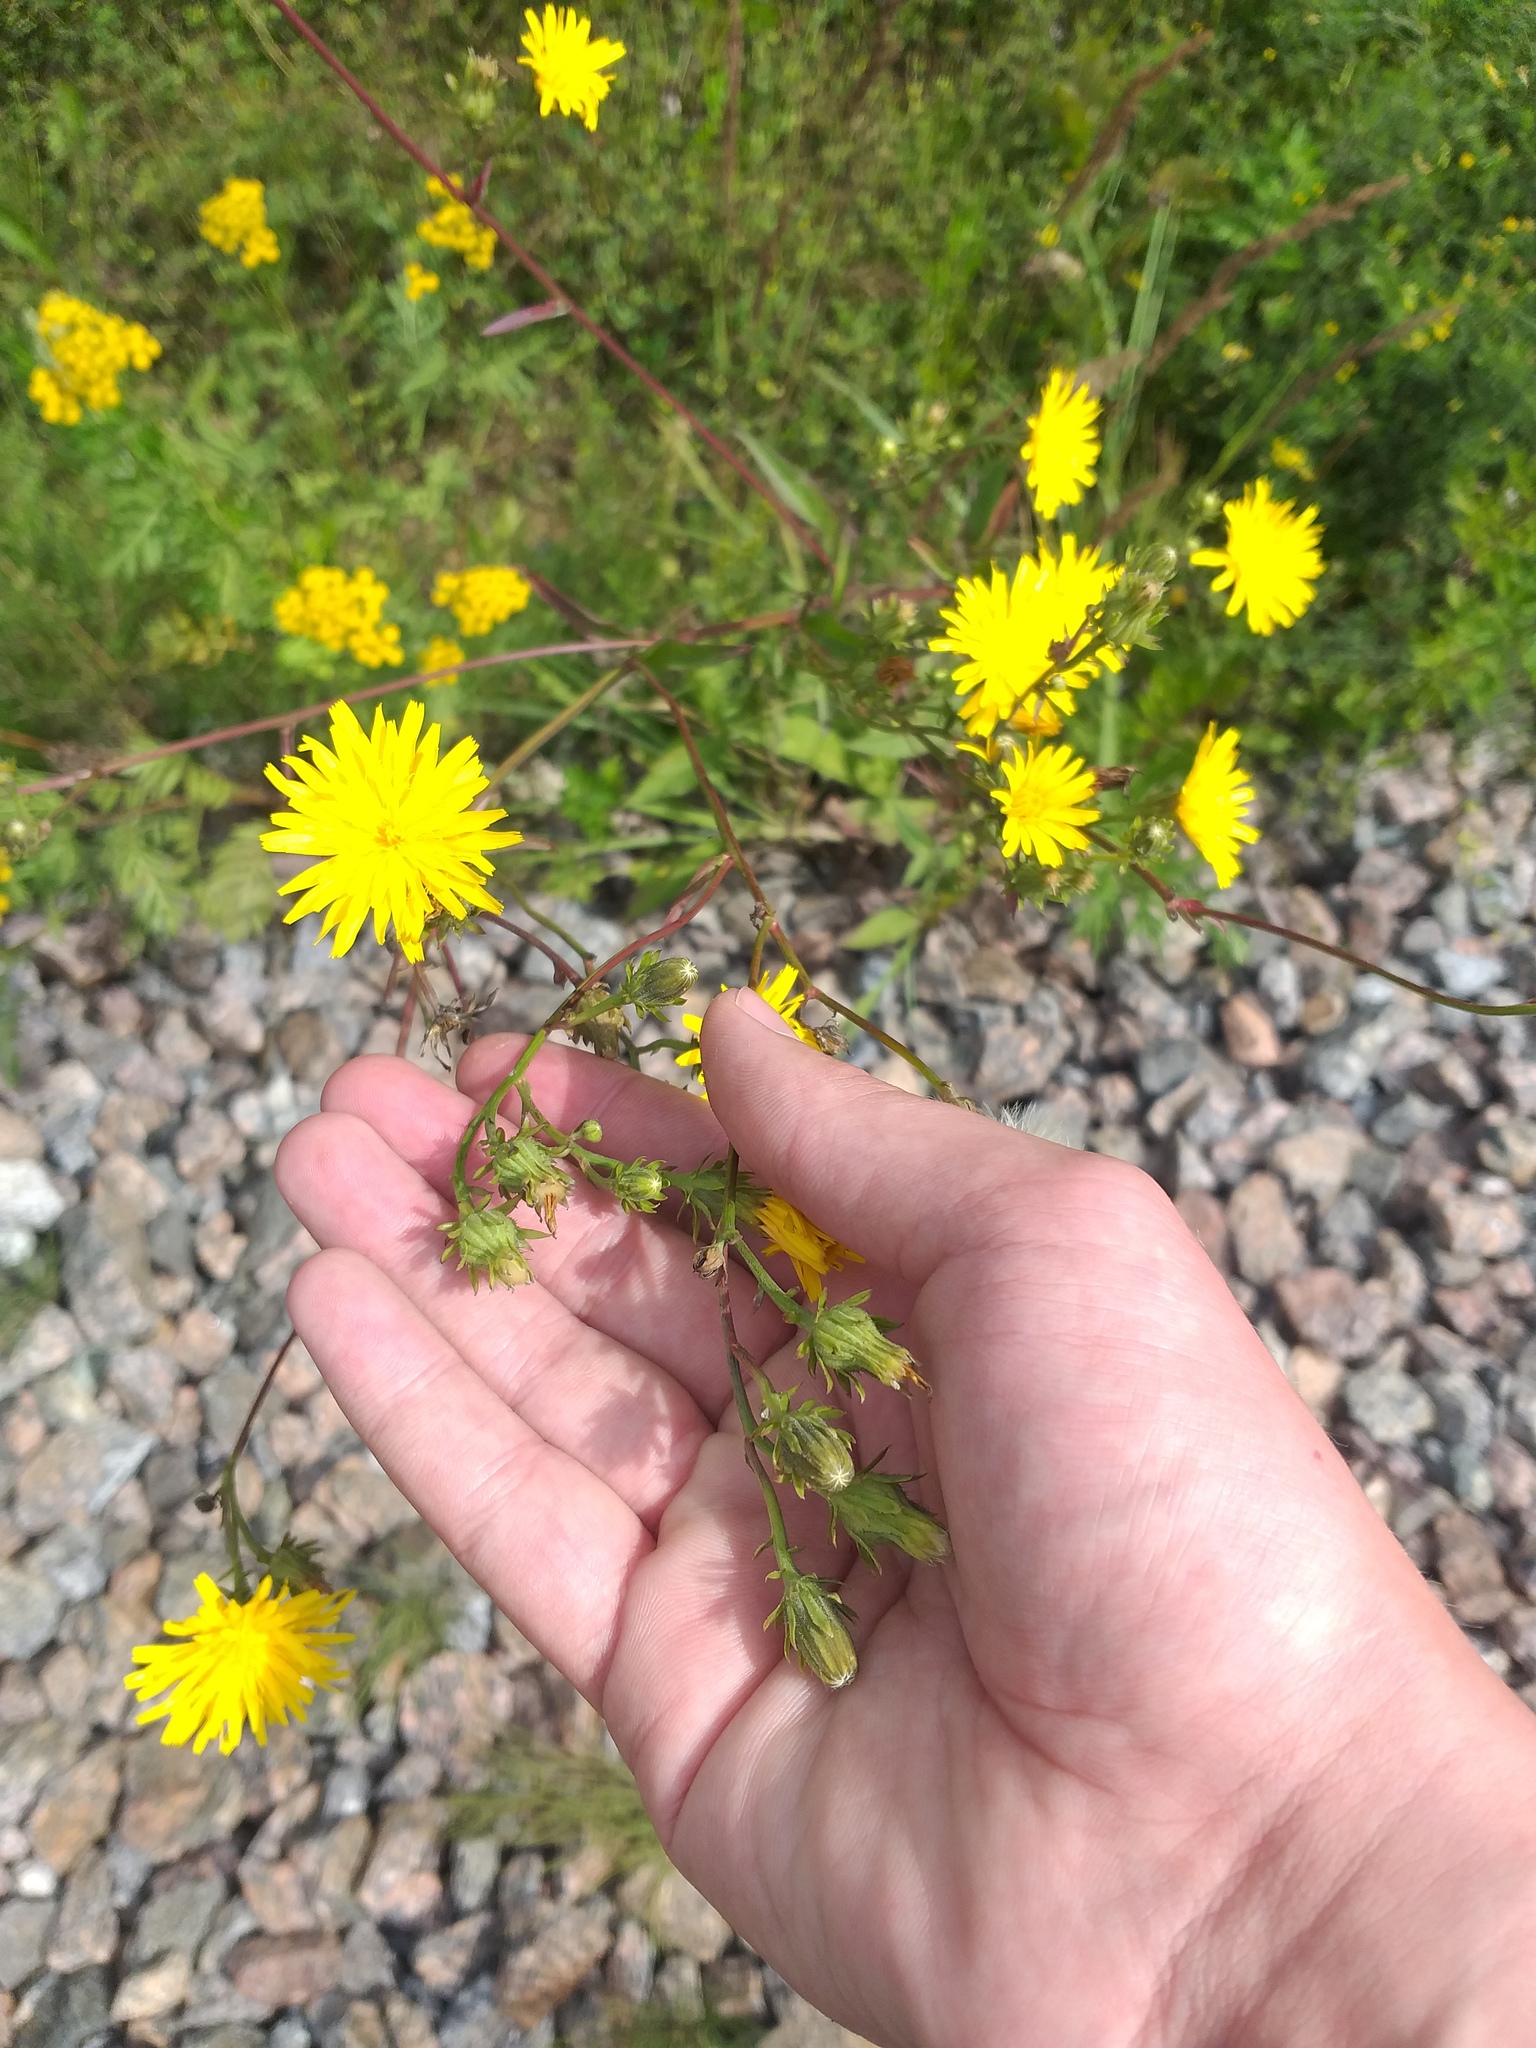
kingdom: Plantae
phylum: Tracheophyta
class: Magnoliopsida
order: Asterales
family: Asteraceae
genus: Picris
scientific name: Picris hieracioides
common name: Hawkweed oxtongue
